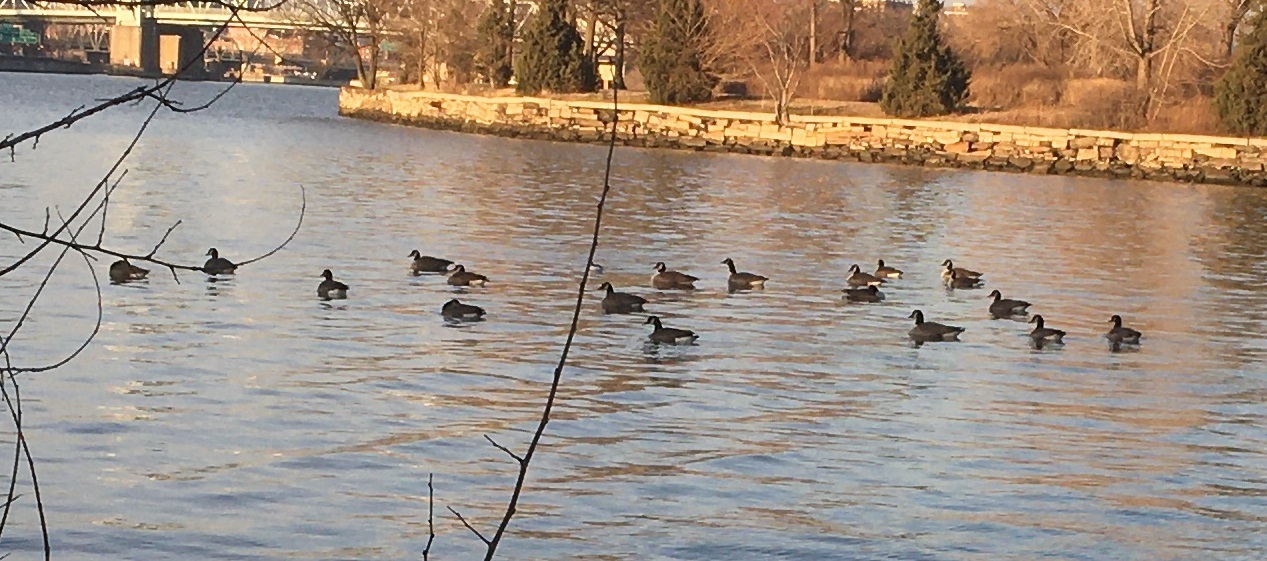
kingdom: Animalia
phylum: Chordata
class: Aves
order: Anseriformes
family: Anatidae
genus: Branta
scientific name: Branta canadensis
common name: Canada goose
